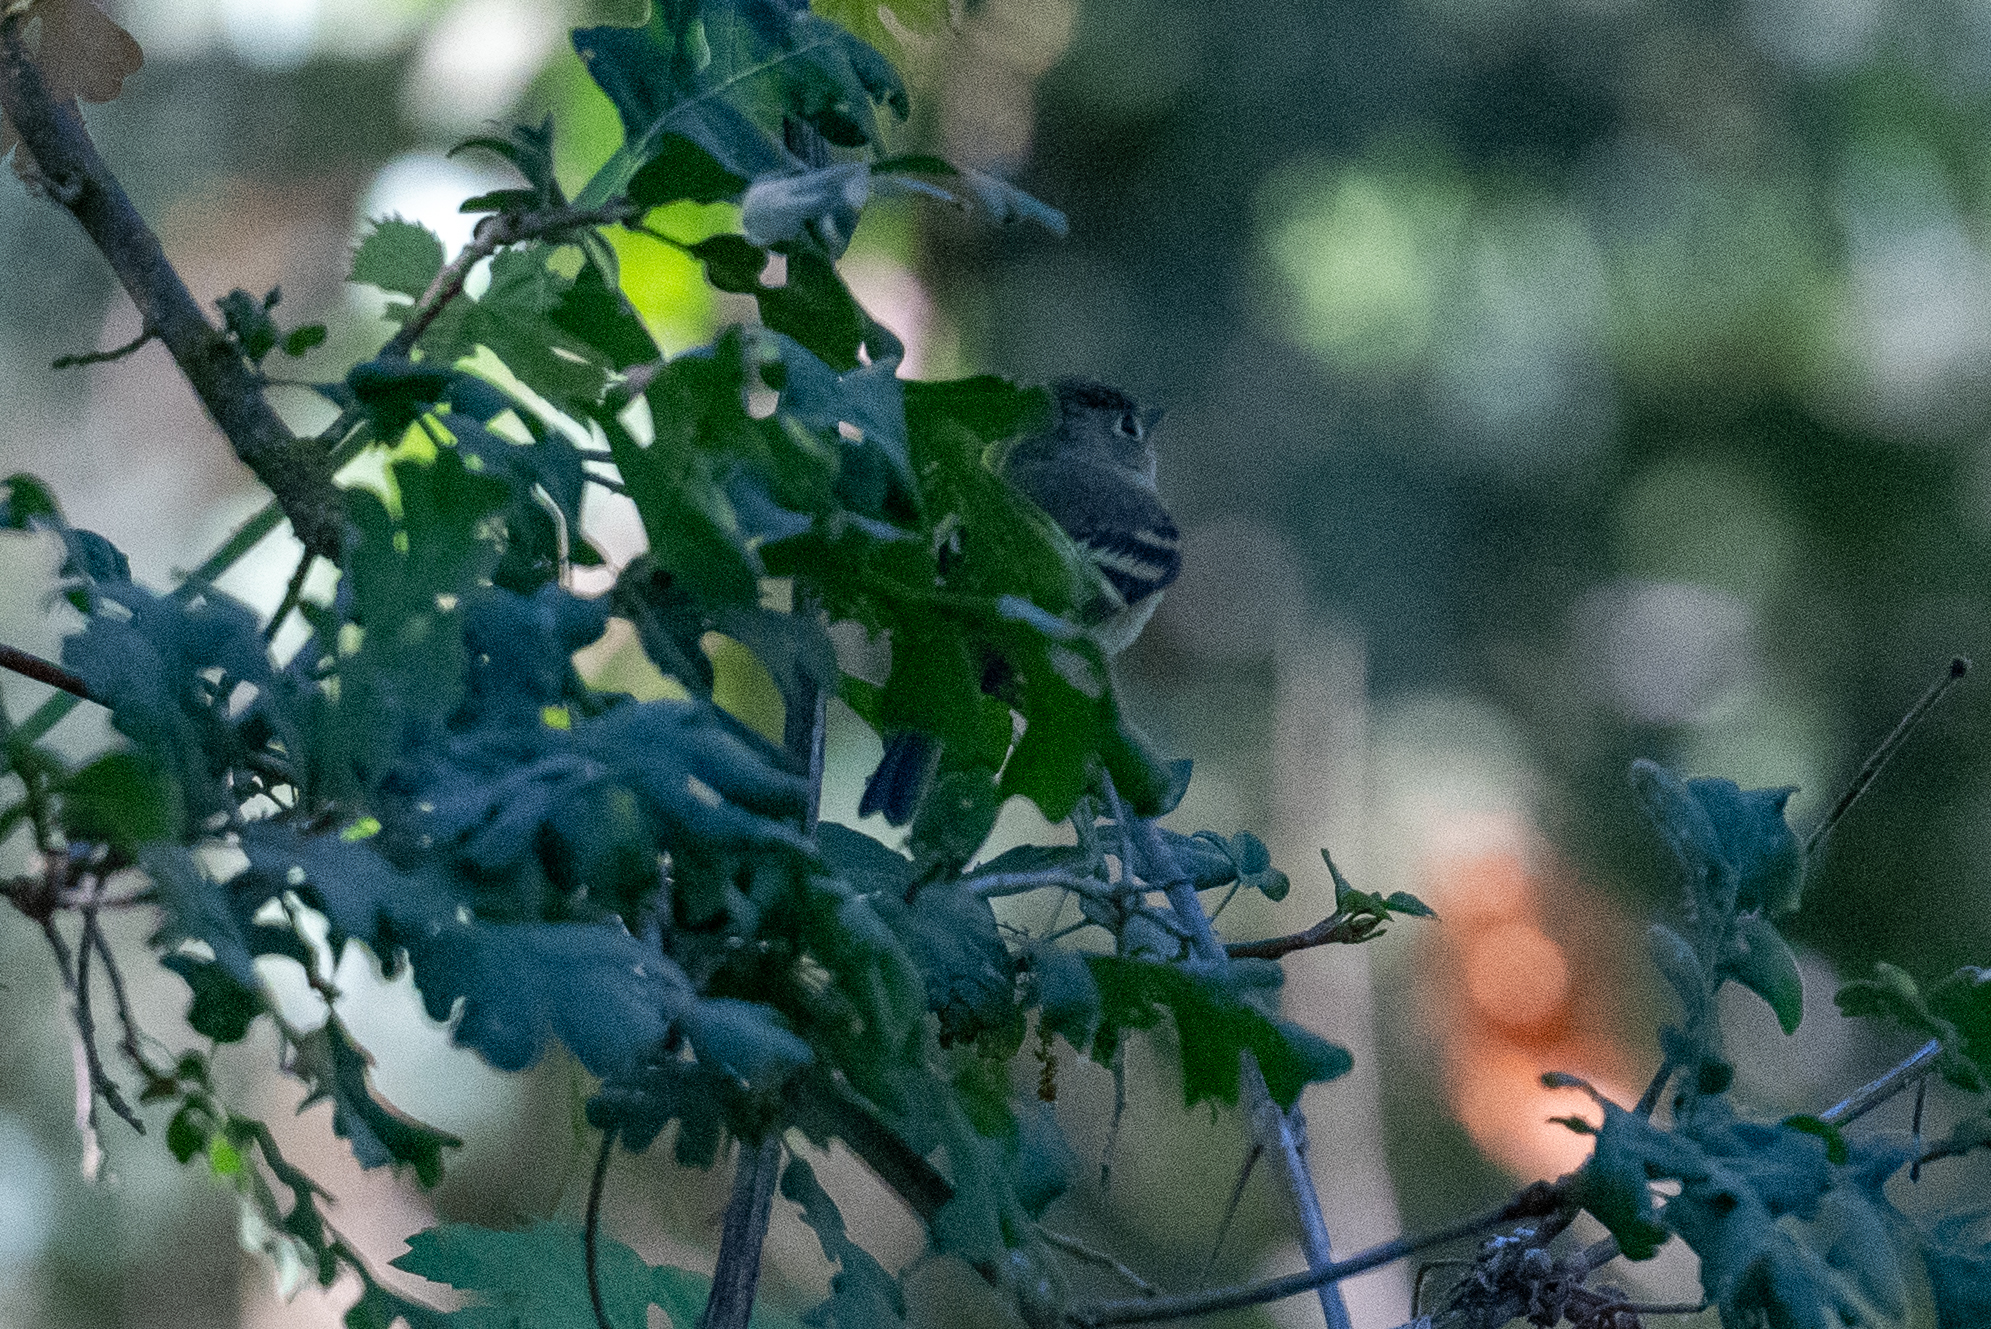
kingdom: Animalia
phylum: Chordata
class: Aves
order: Passeriformes
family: Tyrannidae
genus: Empidonax
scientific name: Empidonax difficilis
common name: Pacific-slope flycatcher
